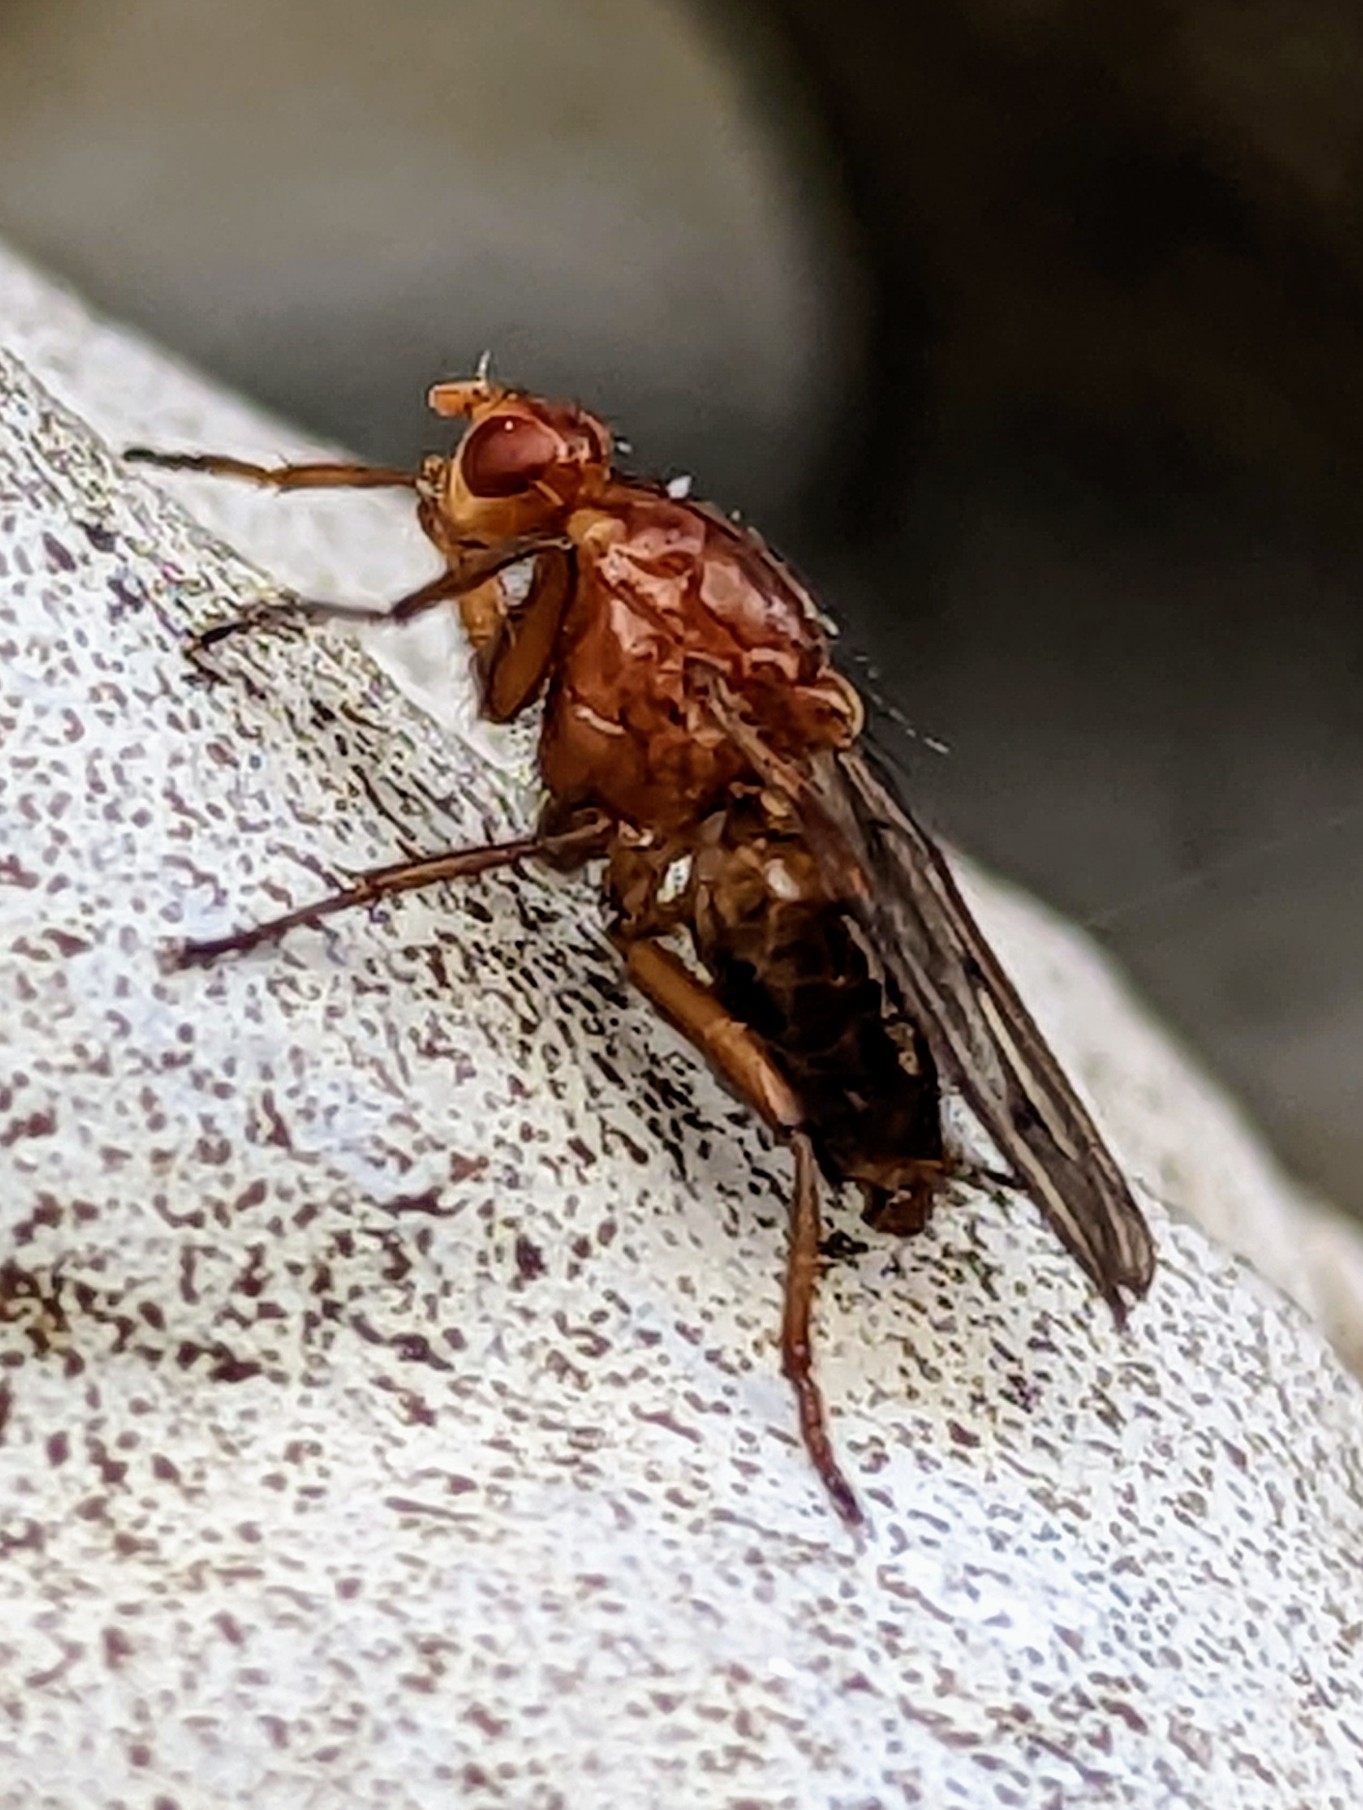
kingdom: Animalia
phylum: Arthropoda
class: Insecta
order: Diptera
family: Dryomyzidae
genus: Dryomyza
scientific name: Dryomyza anilis
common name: Marsh fly
